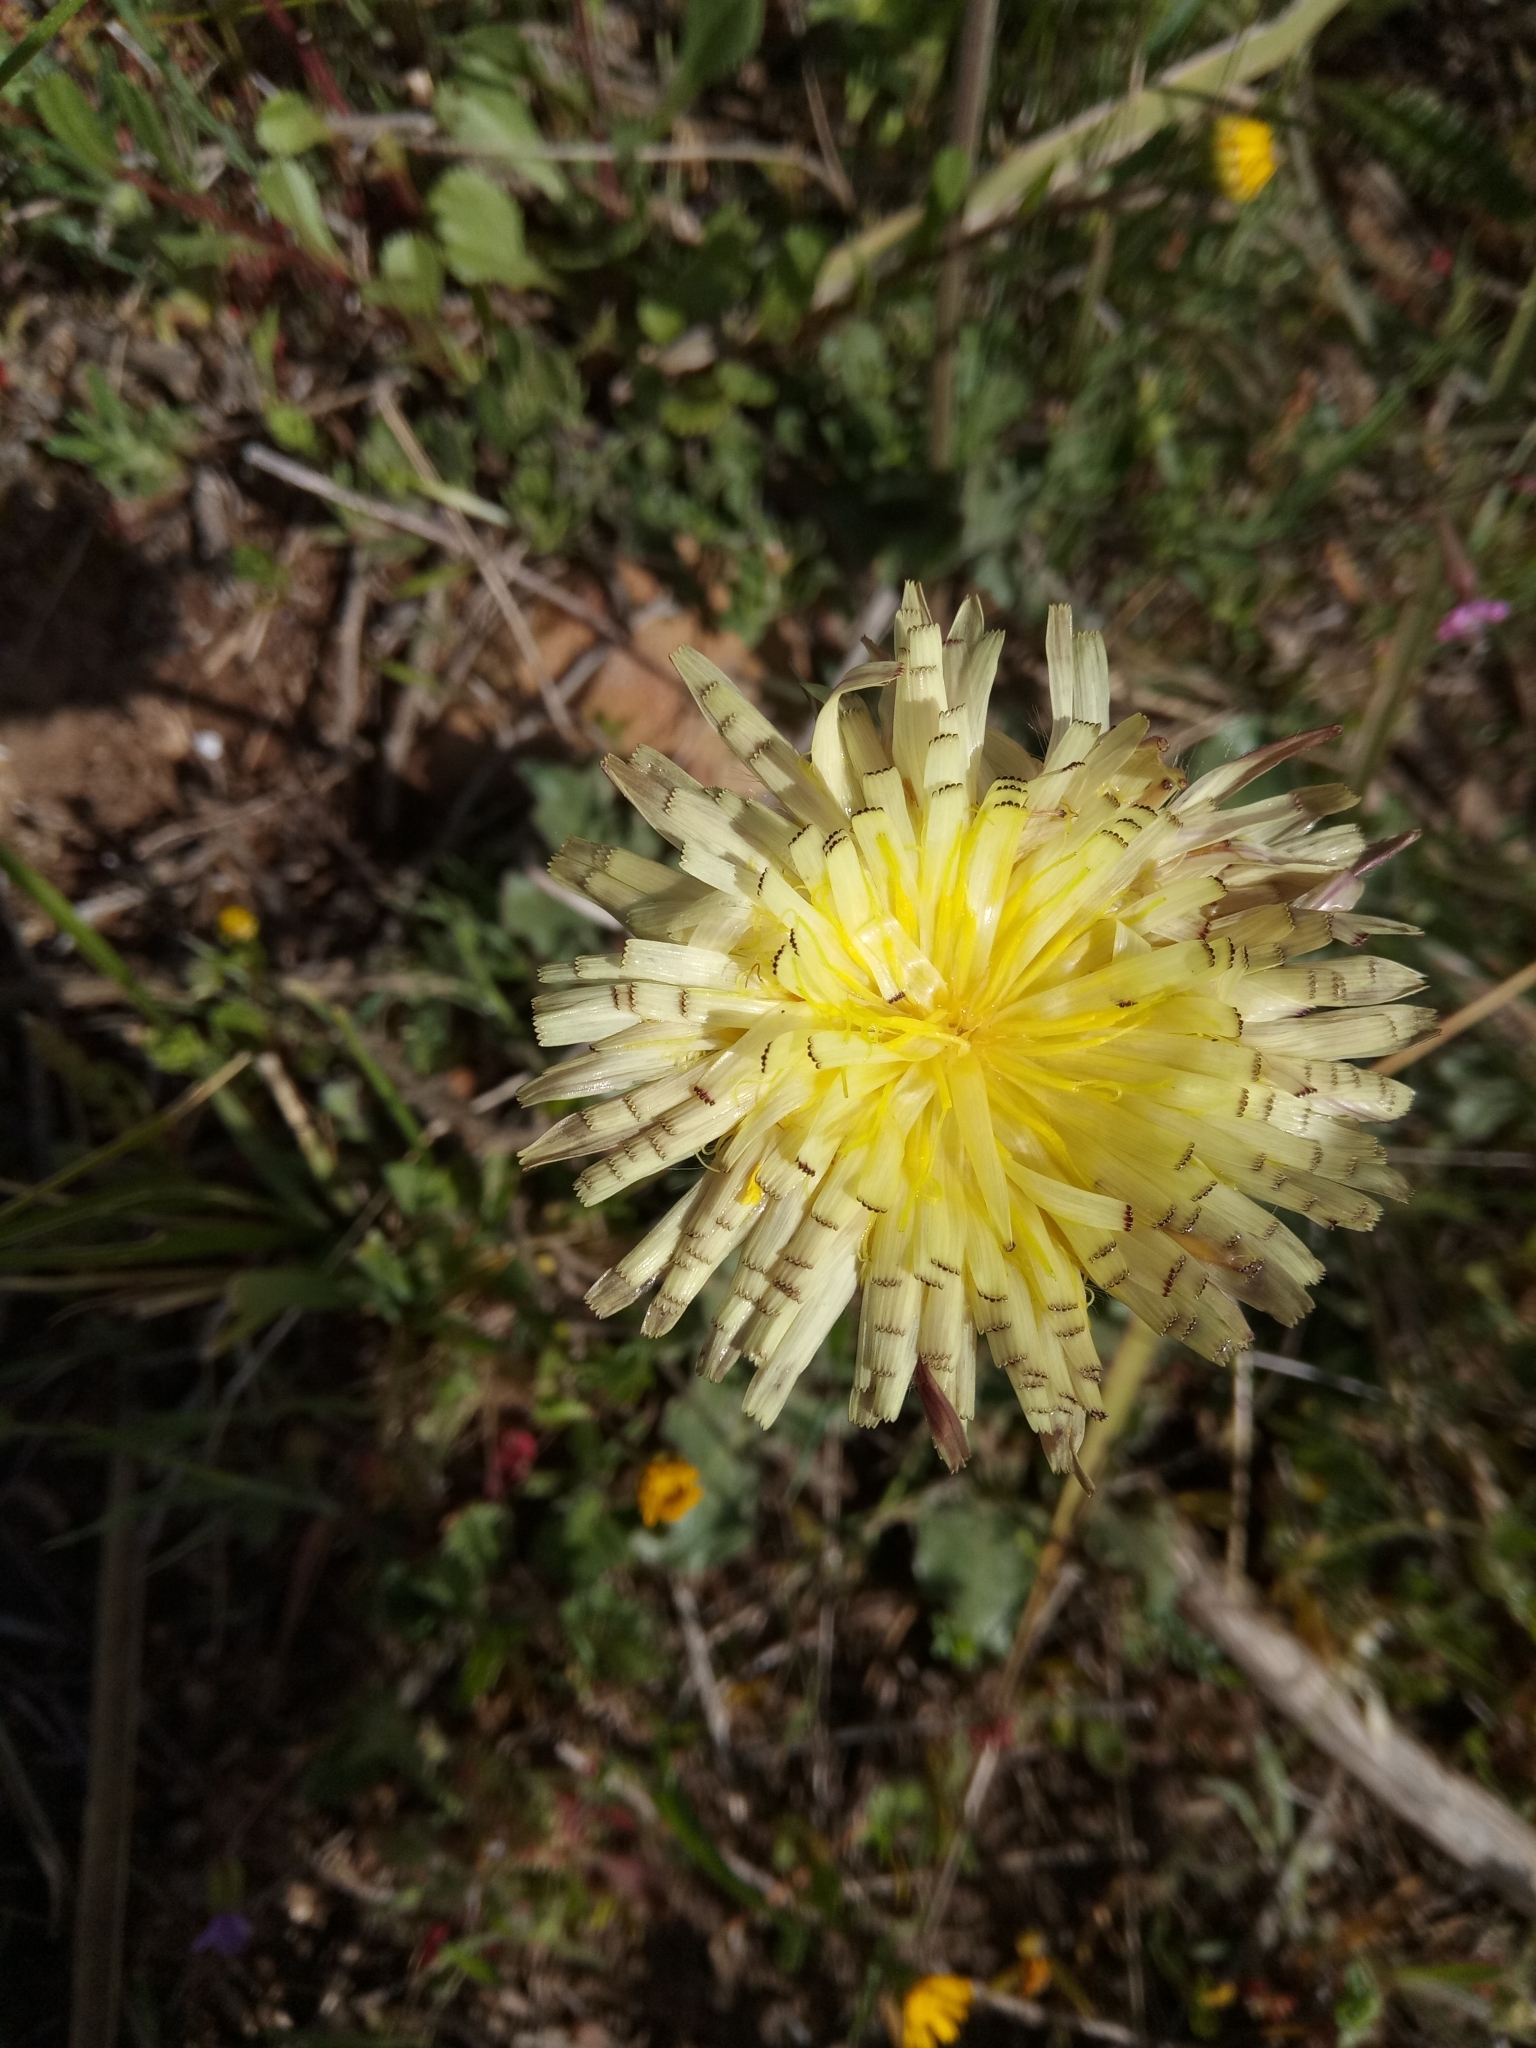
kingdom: Plantae
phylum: Tracheophyta
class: Magnoliopsida
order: Asterales
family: Asteraceae
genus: Urospermum
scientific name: Urospermum dalechampii
